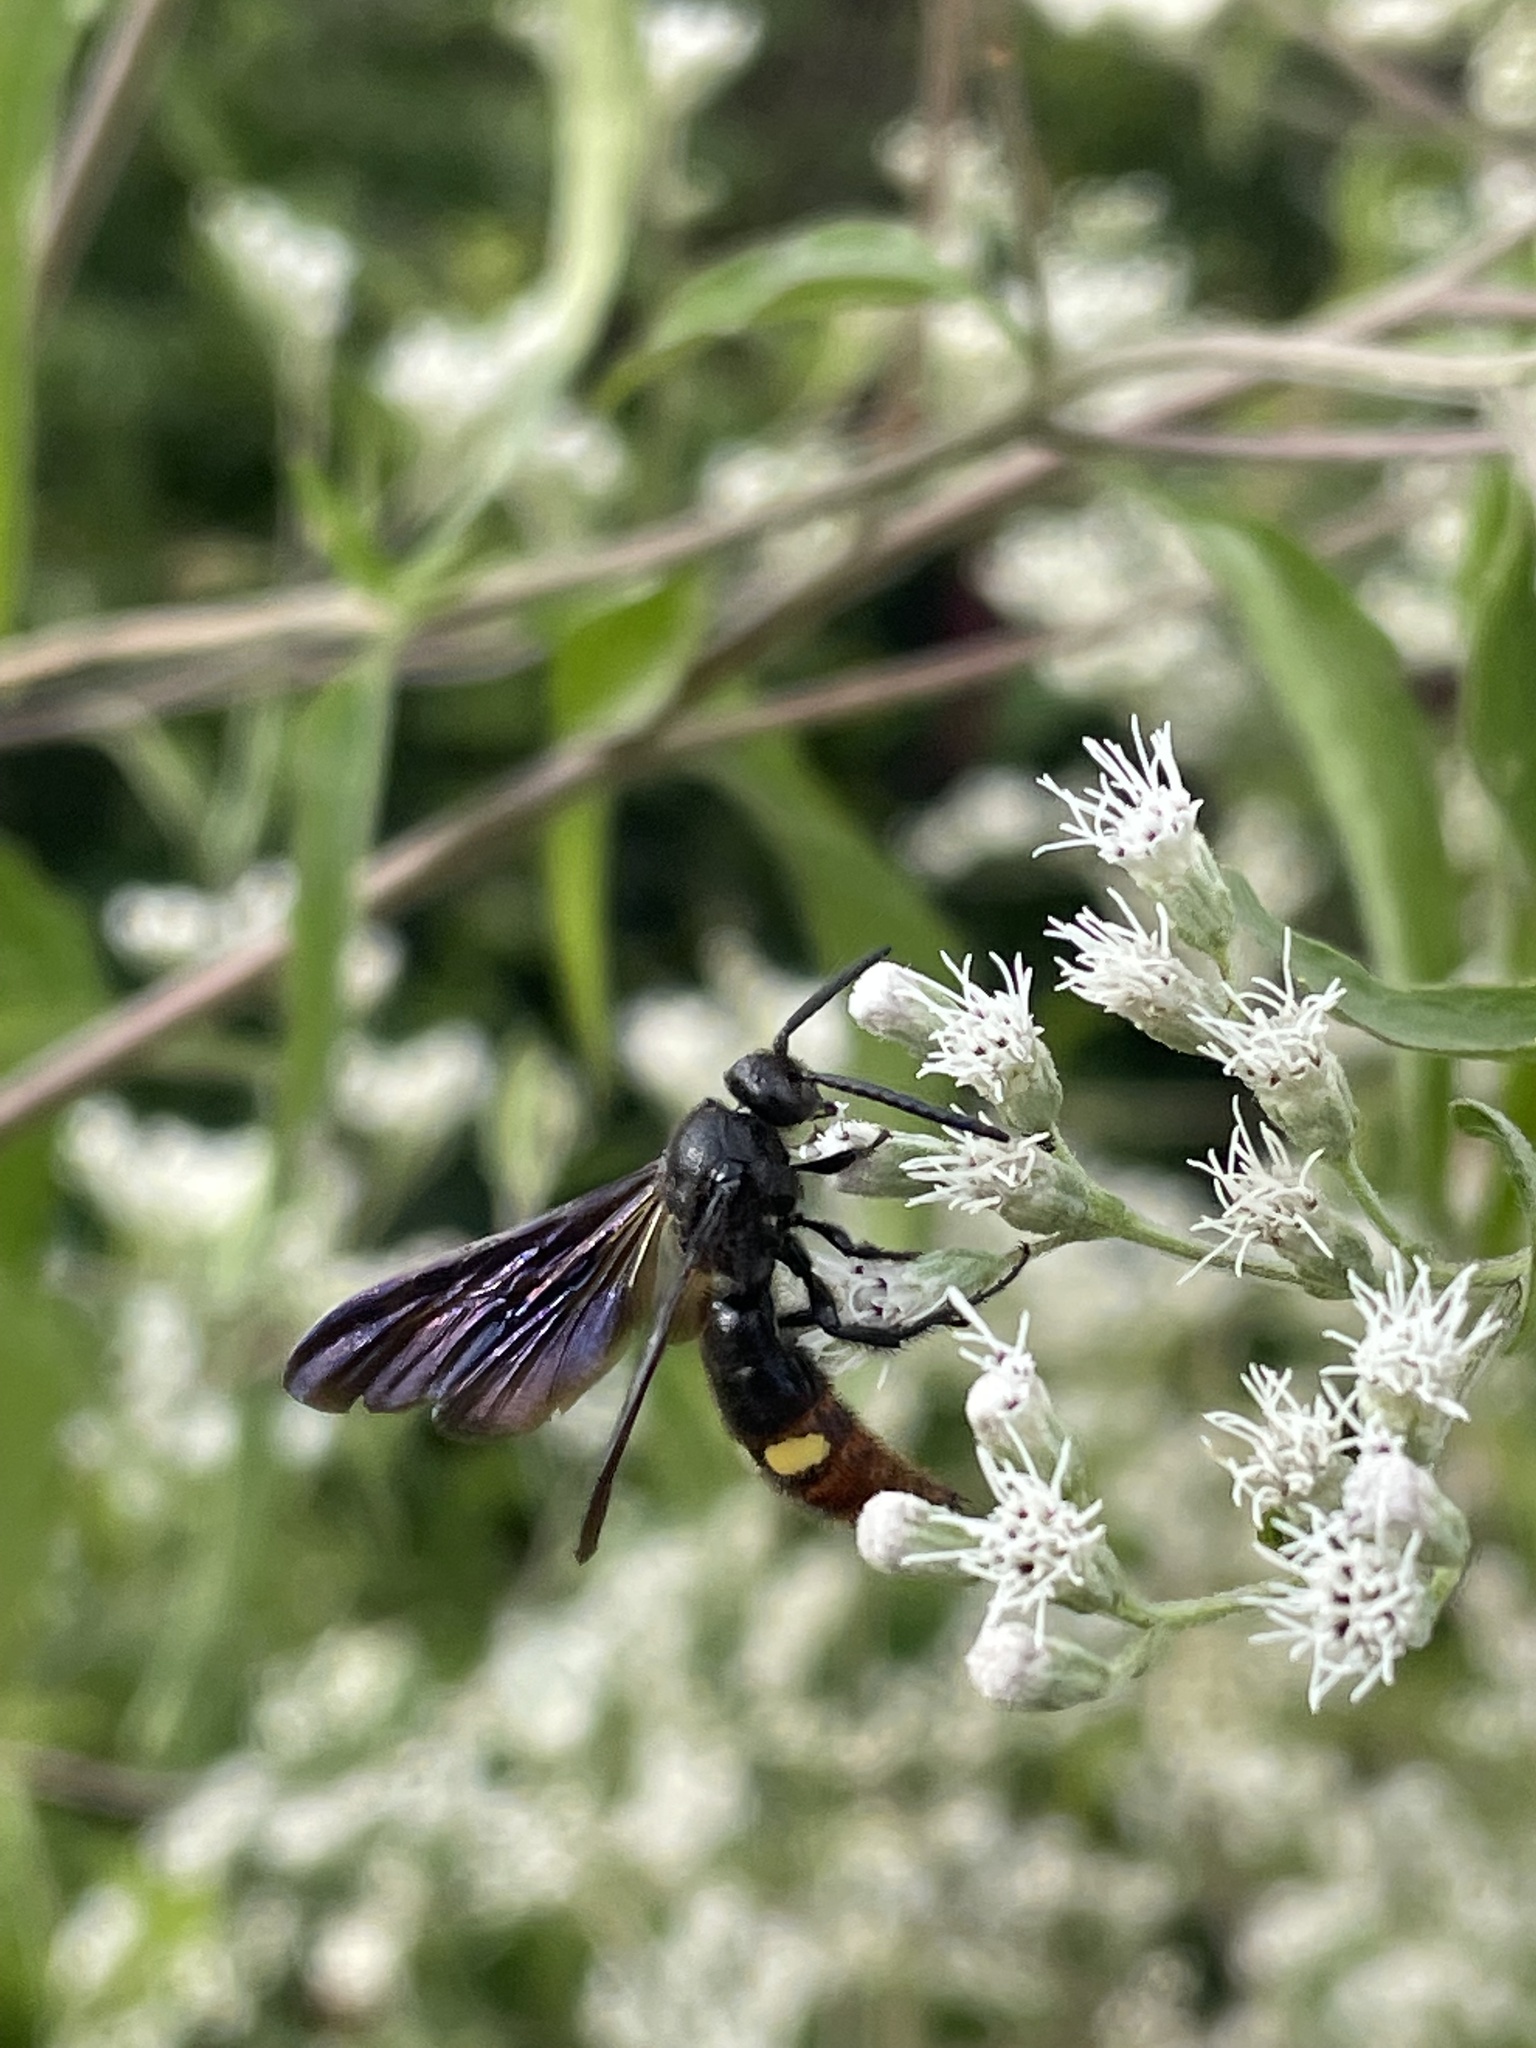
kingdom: Animalia
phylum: Arthropoda
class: Insecta
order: Hymenoptera
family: Scoliidae
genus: Scolia
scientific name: Scolia dubia
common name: Blue-winged scoliid wasp
